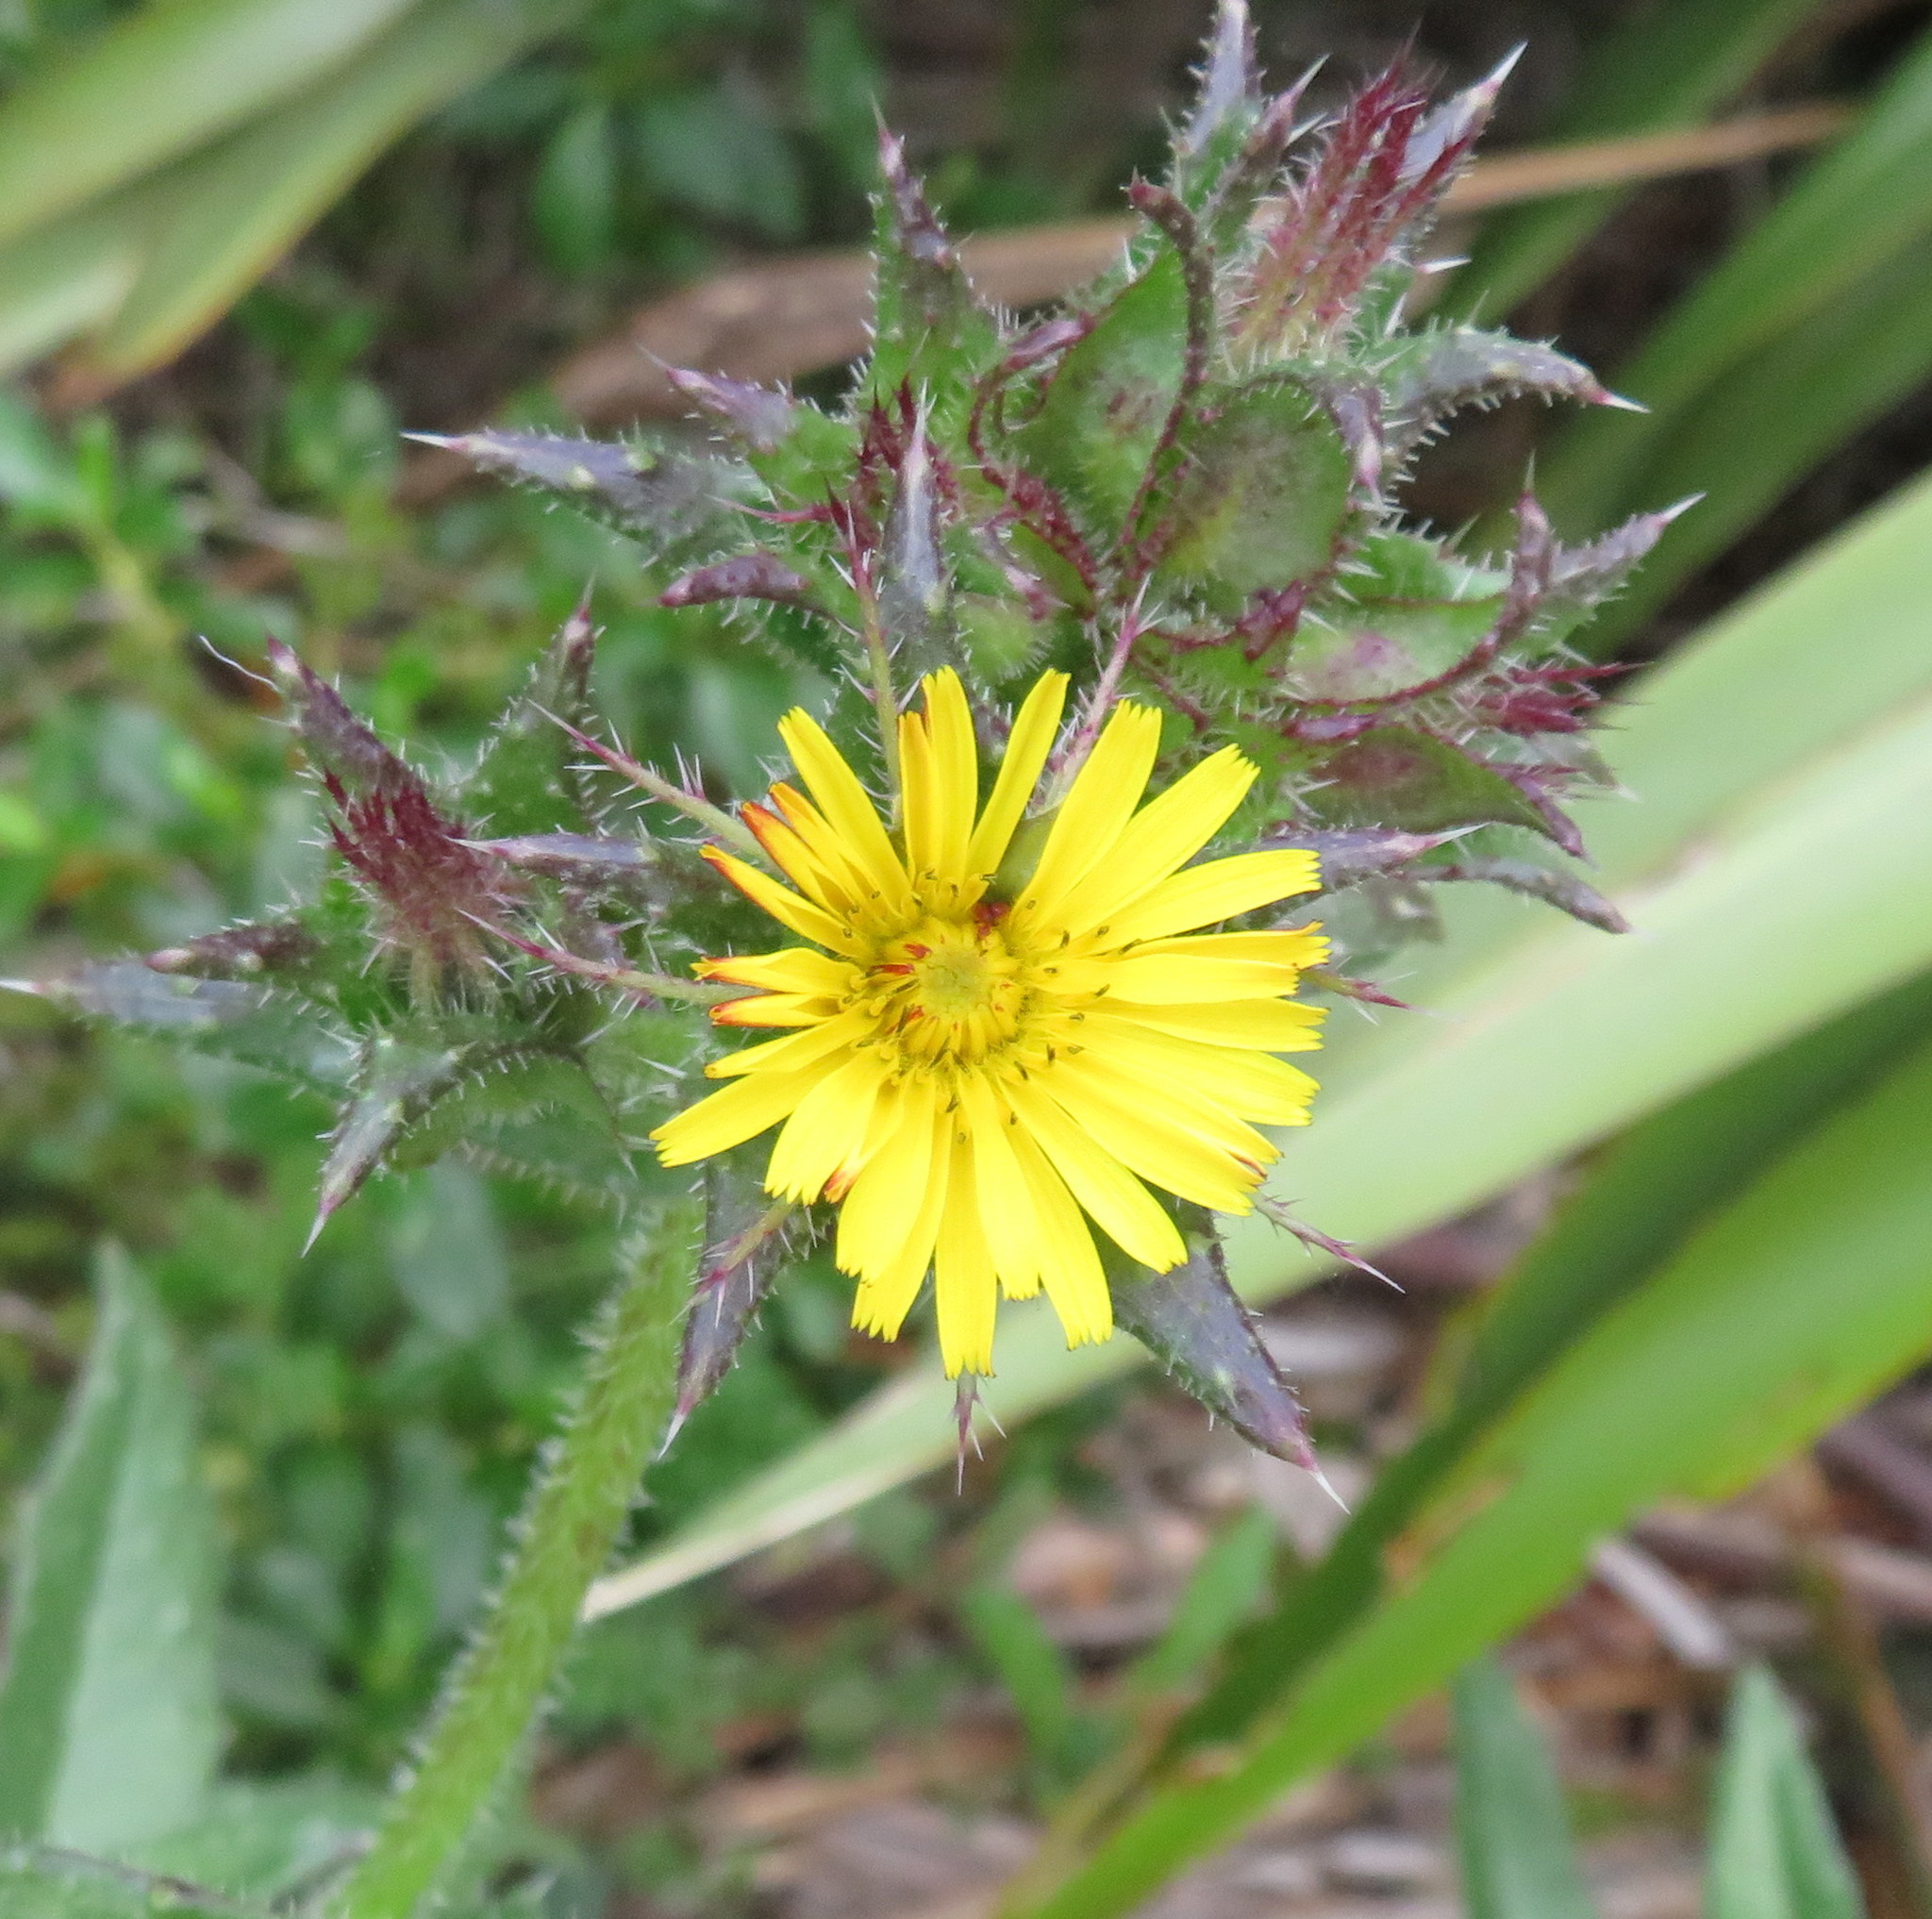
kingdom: Plantae
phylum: Tracheophyta
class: Magnoliopsida
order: Asterales
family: Asteraceae
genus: Helminthotheca
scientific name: Helminthotheca echioides
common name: Ox-tongue
